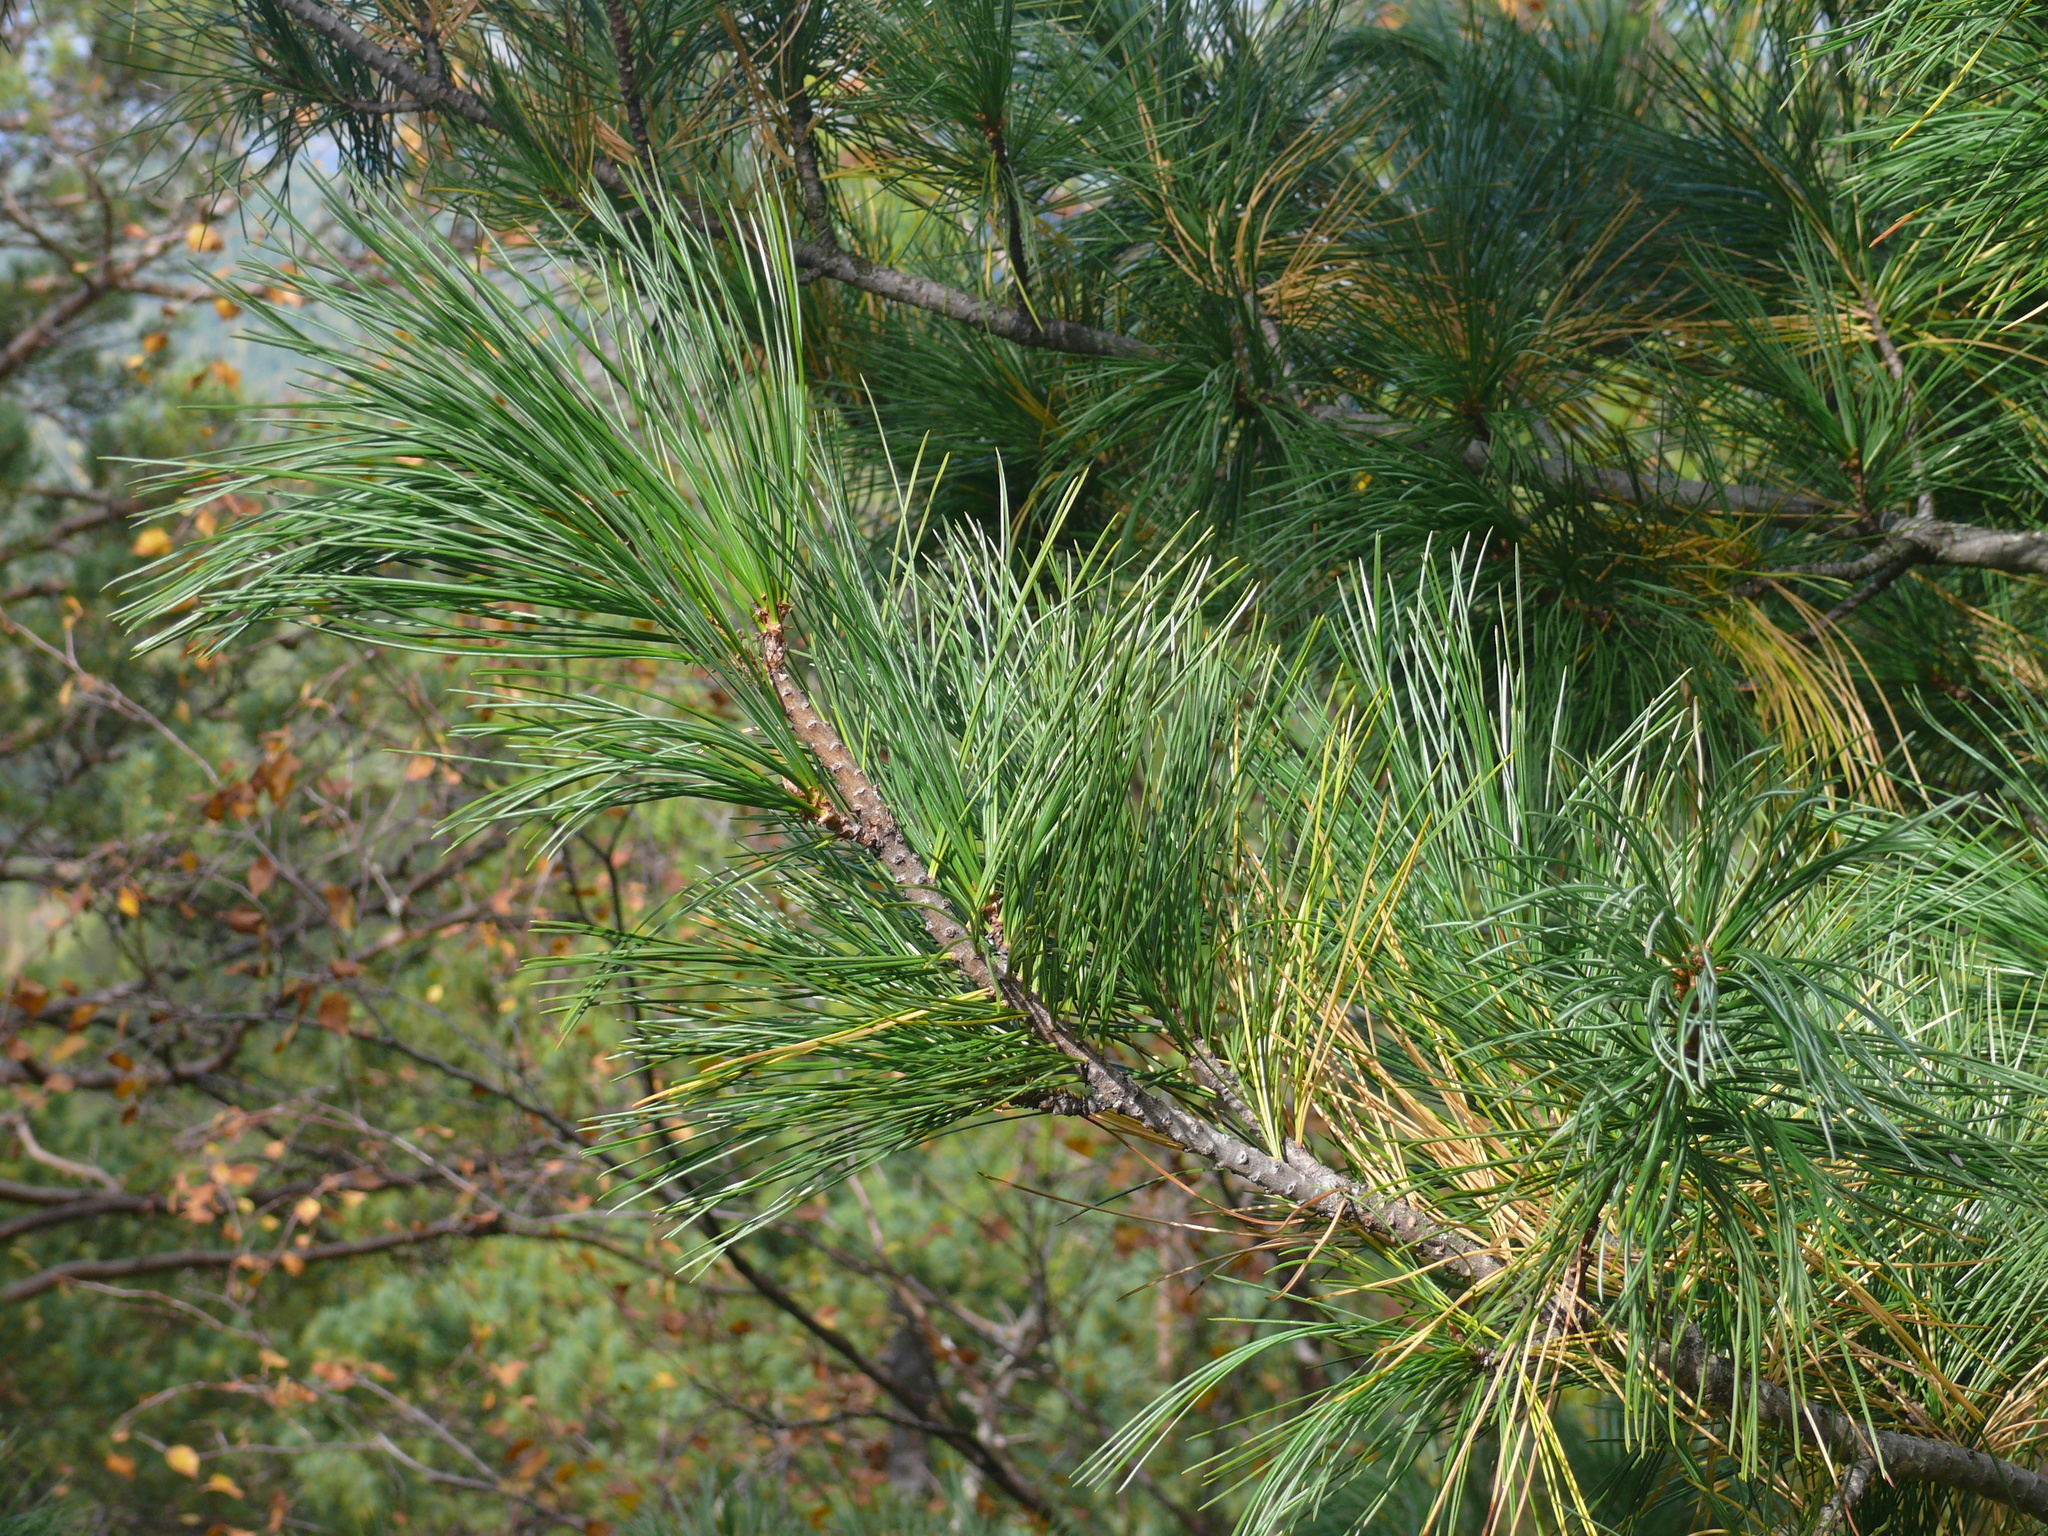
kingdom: Plantae
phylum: Tracheophyta
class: Pinopsida
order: Pinales
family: Pinaceae
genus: Pinus
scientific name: Pinus sibirica
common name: Siberian pine
